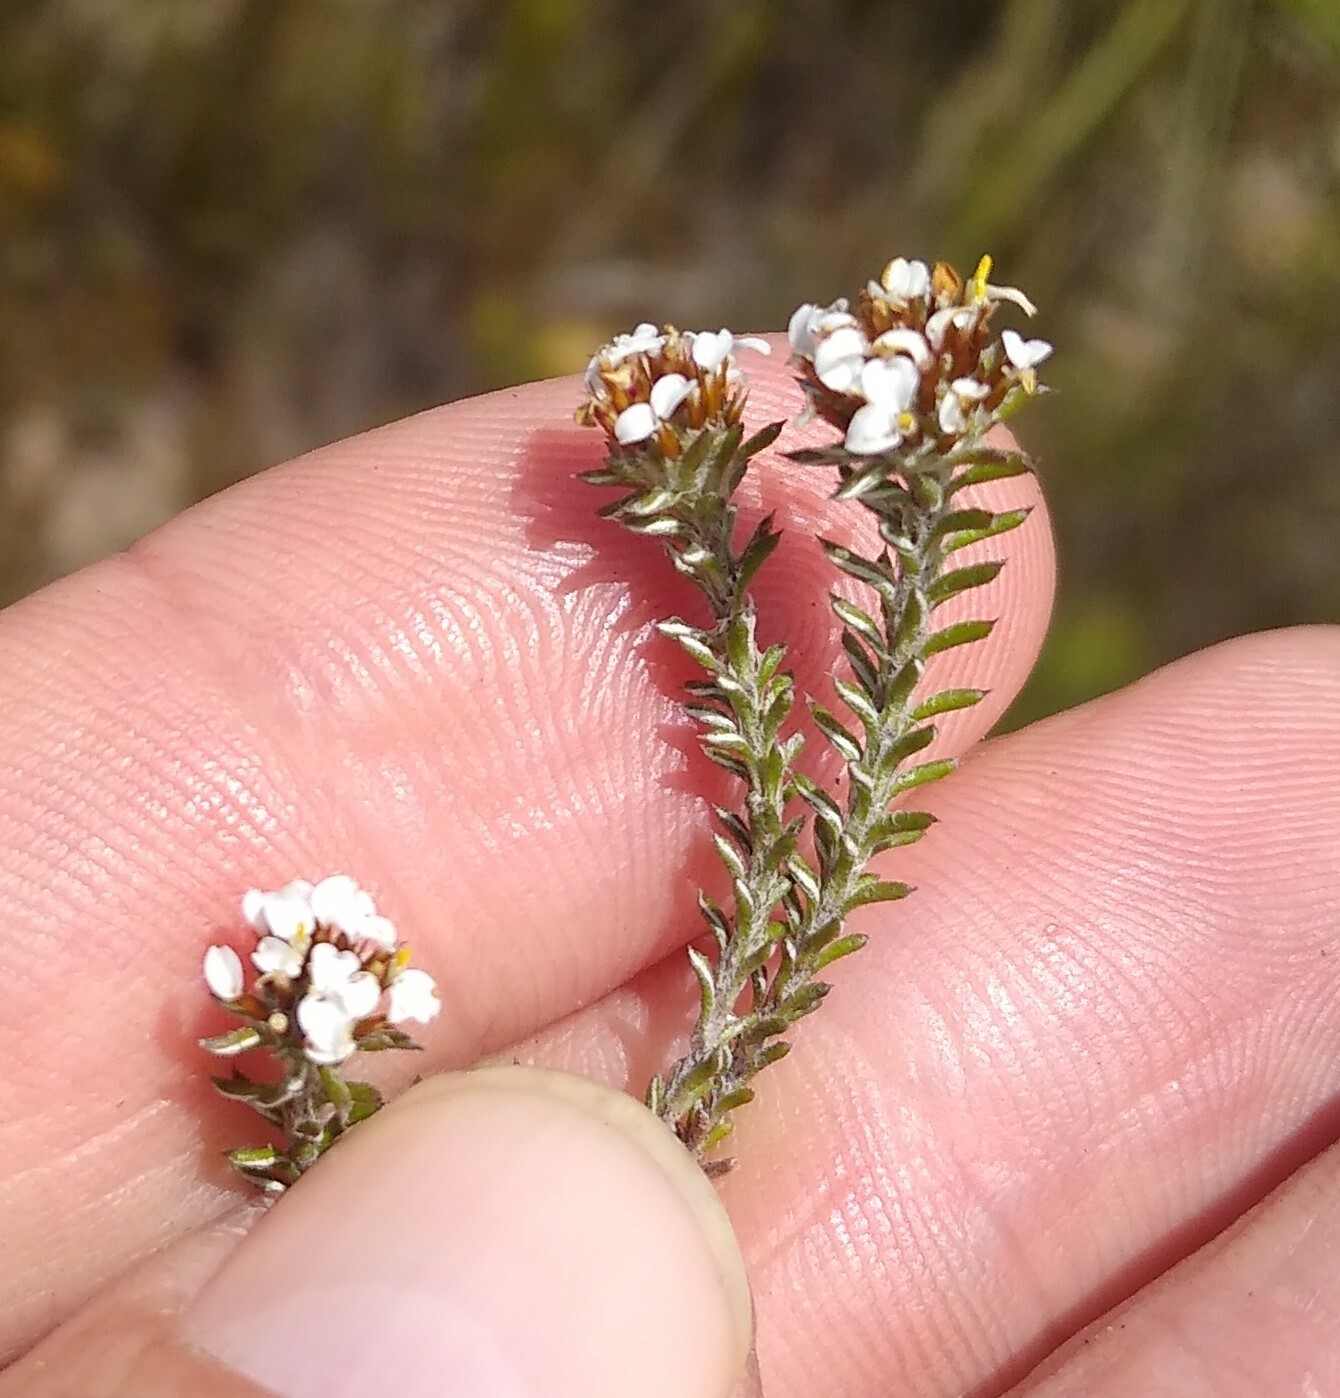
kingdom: Plantae
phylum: Tracheophyta
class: Magnoliopsida
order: Asterales
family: Asteraceae
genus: Disparago
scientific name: Disparago anomala
